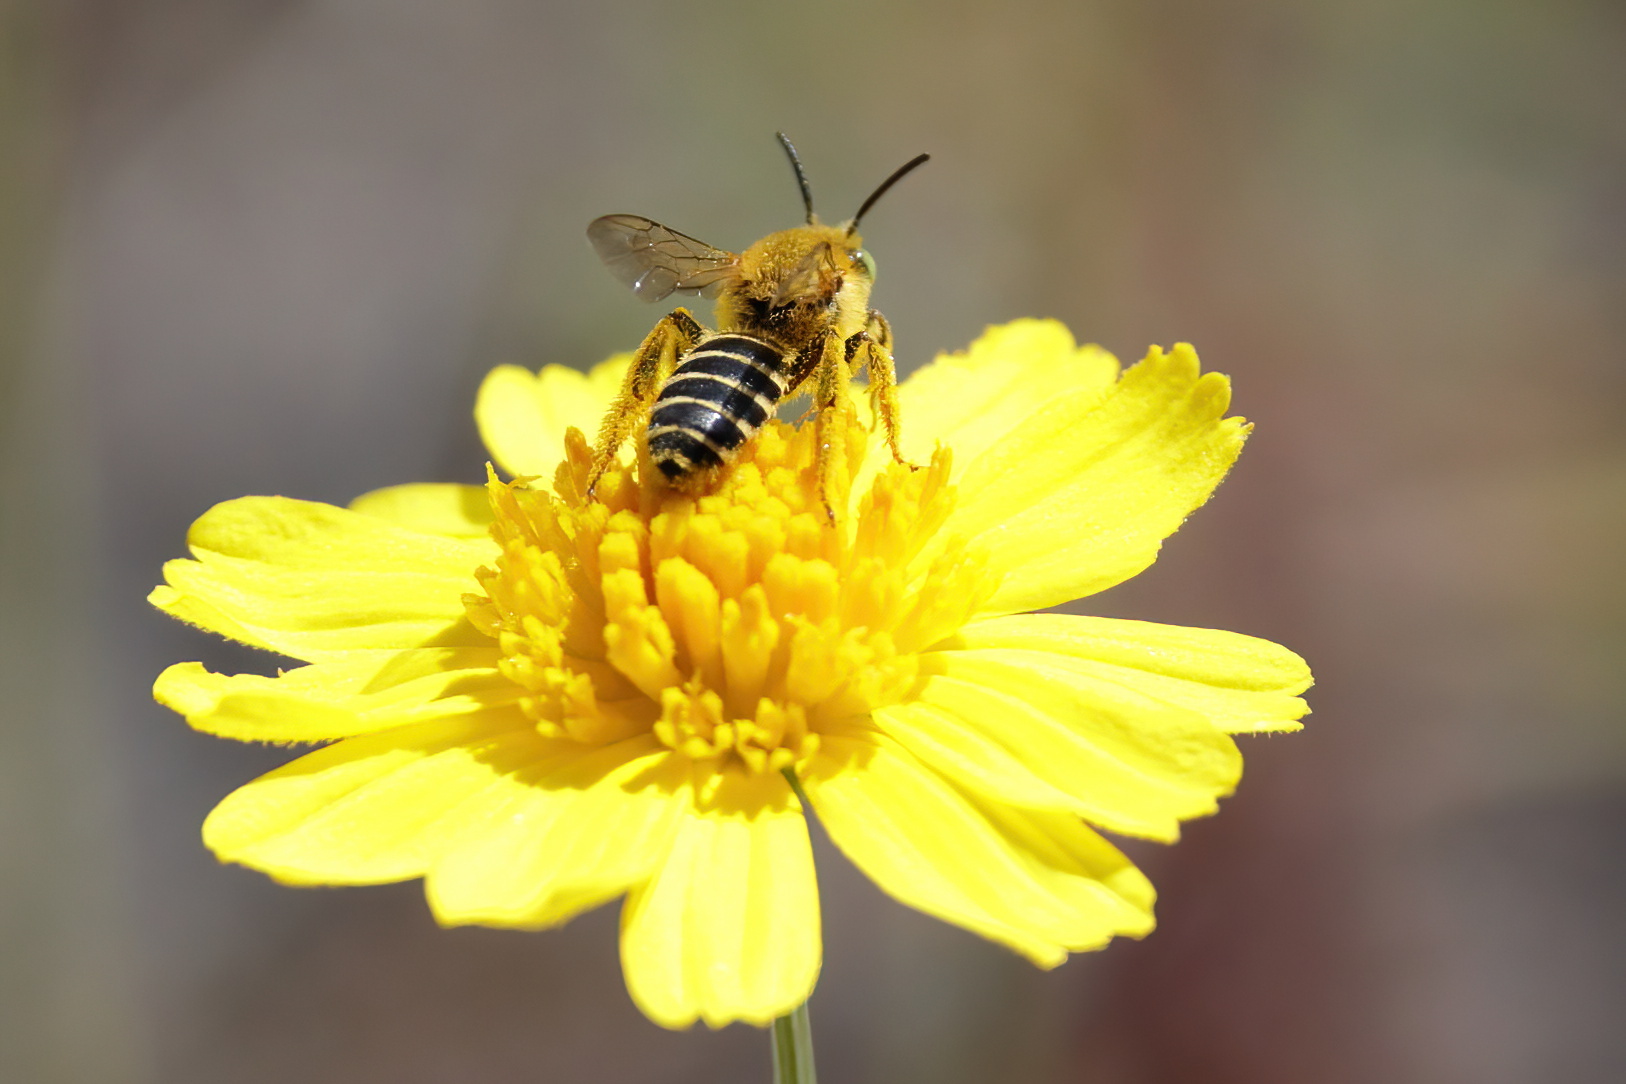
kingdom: Animalia
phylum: Arthropoda
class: Insecta
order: Hymenoptera
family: Melittidae
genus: Hesperapis
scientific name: Hesperapis oraria
